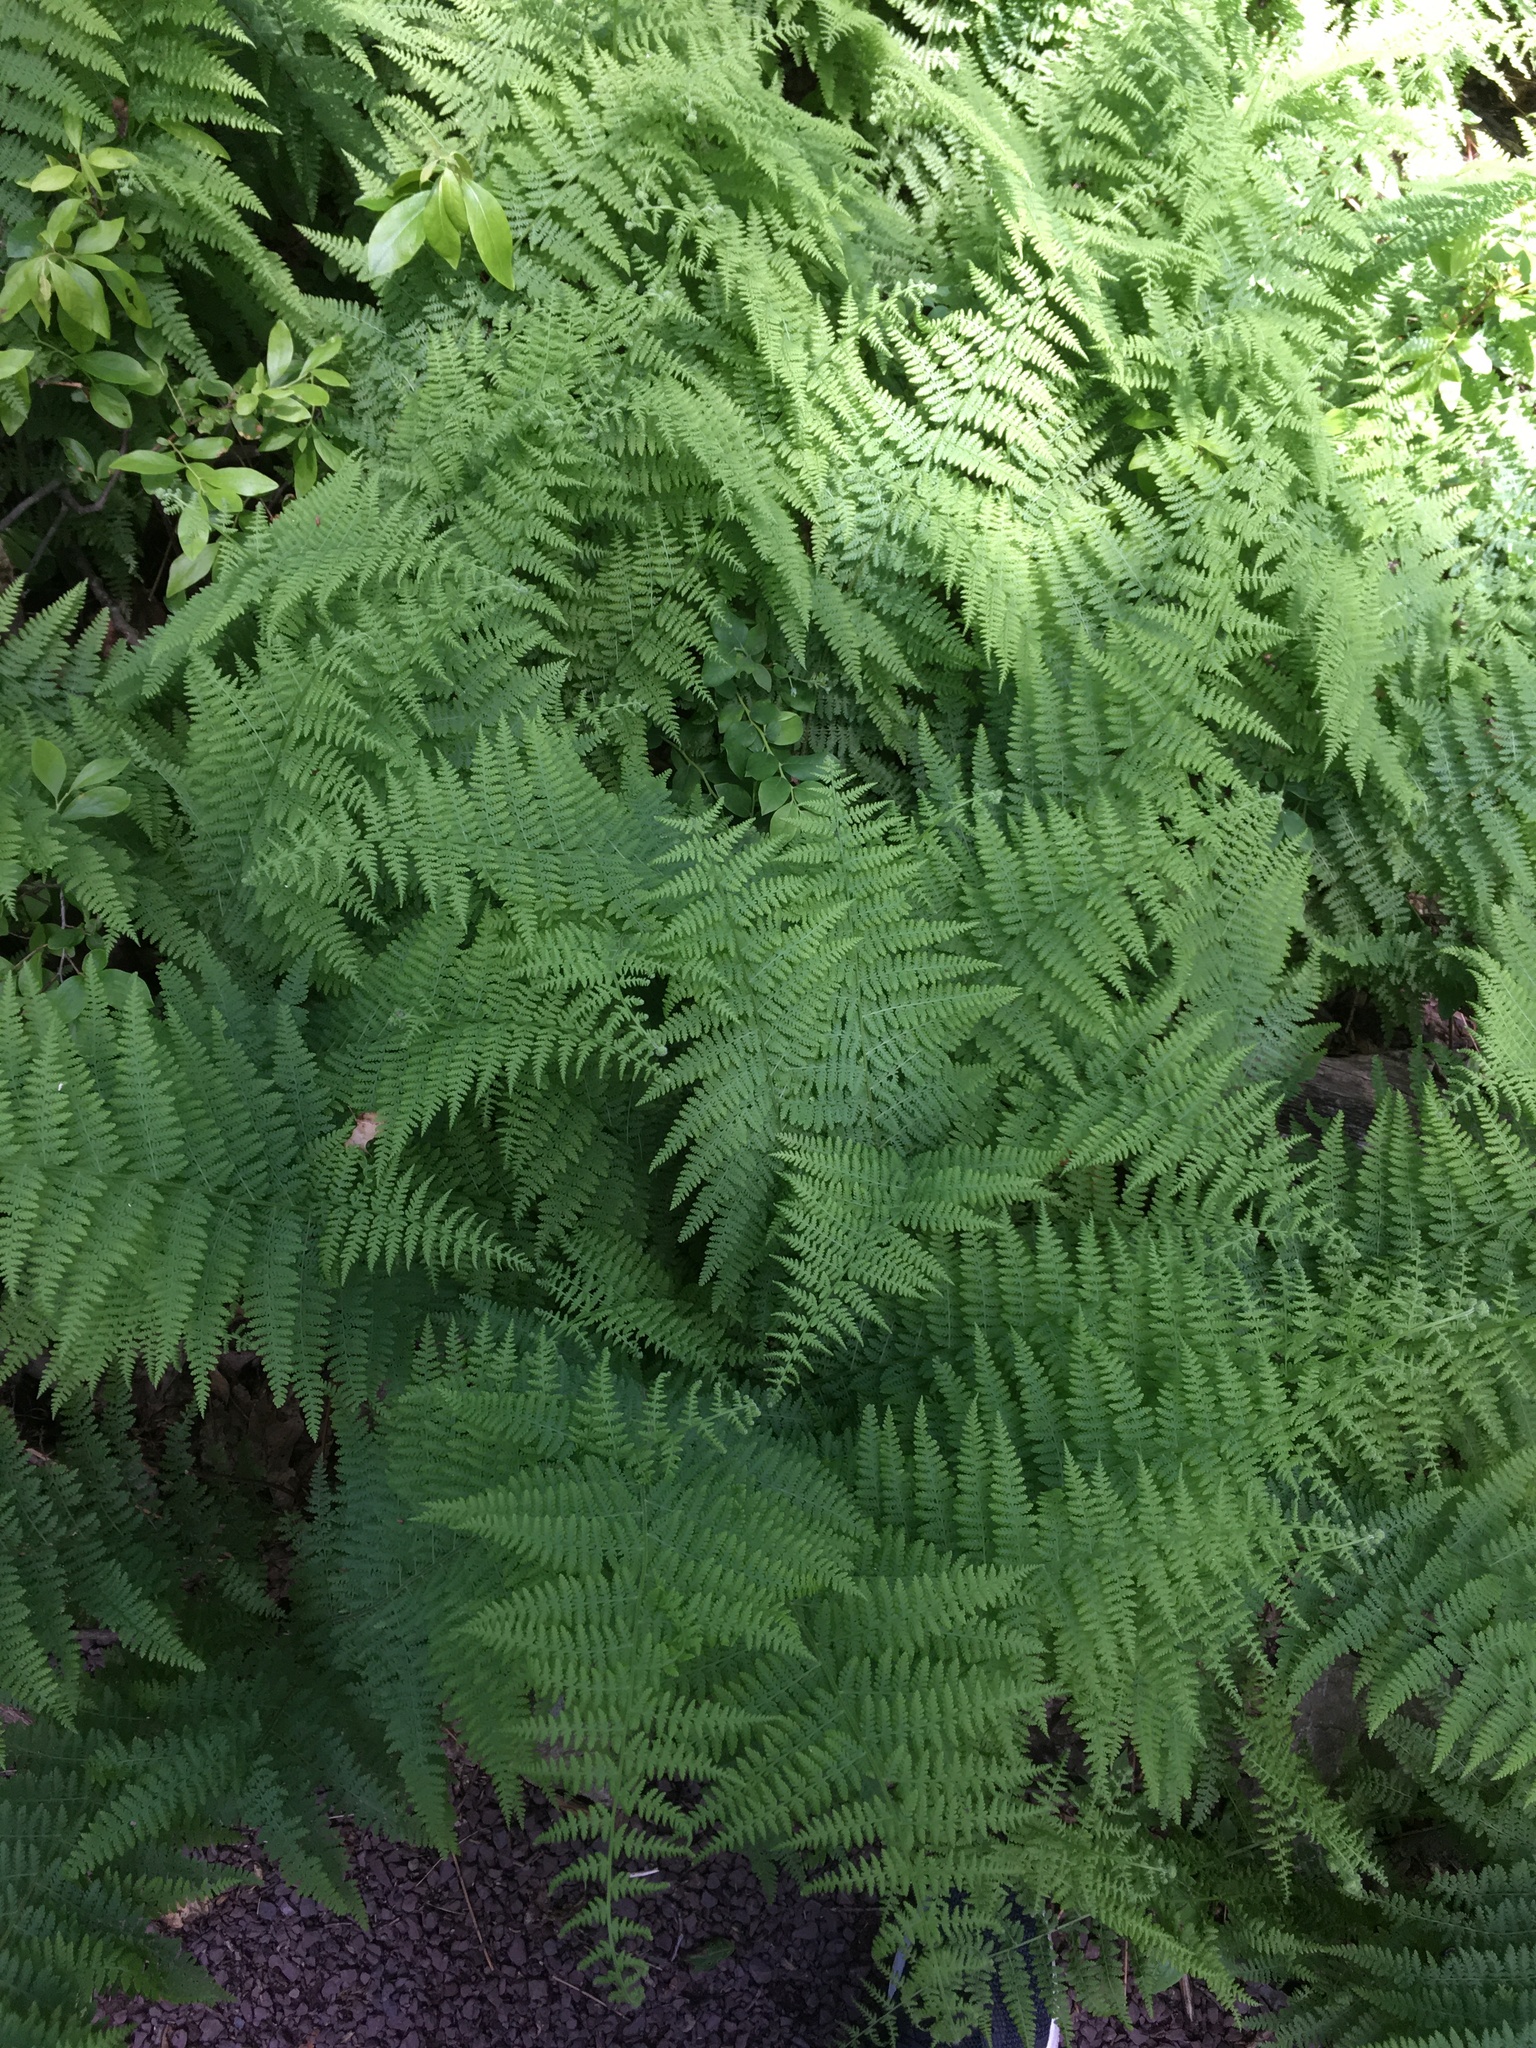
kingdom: Plantae
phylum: Tracheophyta
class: Polypodiopsida
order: Polypodiales
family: Dennstaedtiaceae
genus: Sitobolium
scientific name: Sitobolium punctilobum
